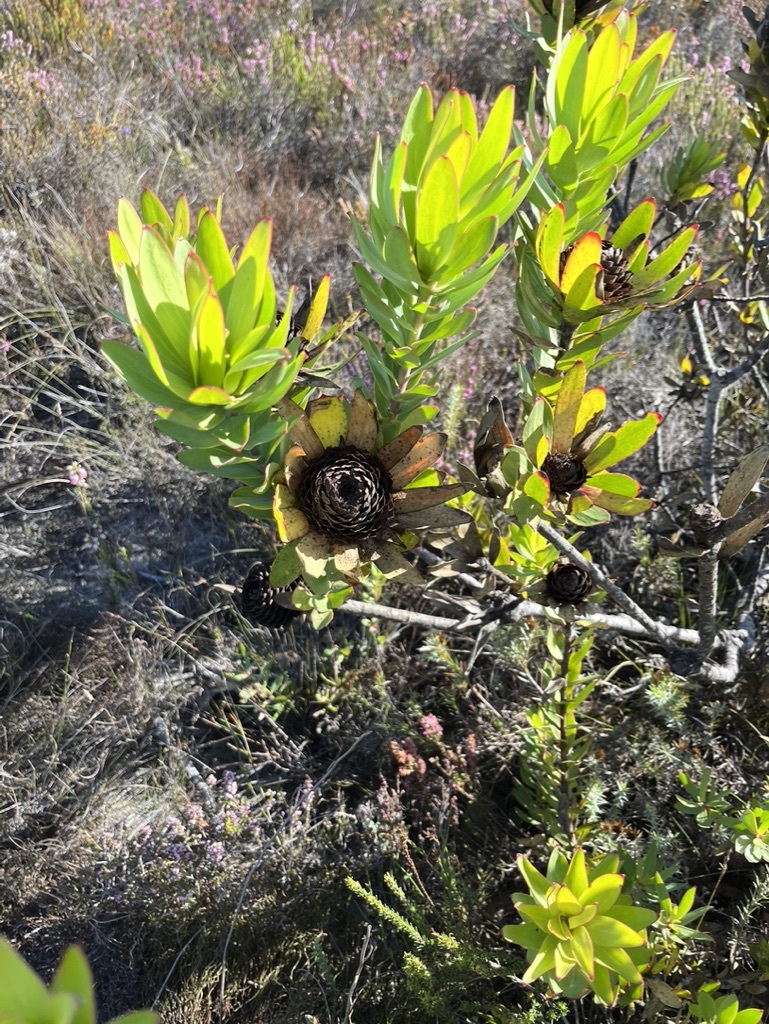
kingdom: Plantae
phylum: Tracheophyta
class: Magnoliopsida
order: Proteales
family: Proteaceae
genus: Leucadendron
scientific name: Leucadendron elimense
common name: Elim conebush
